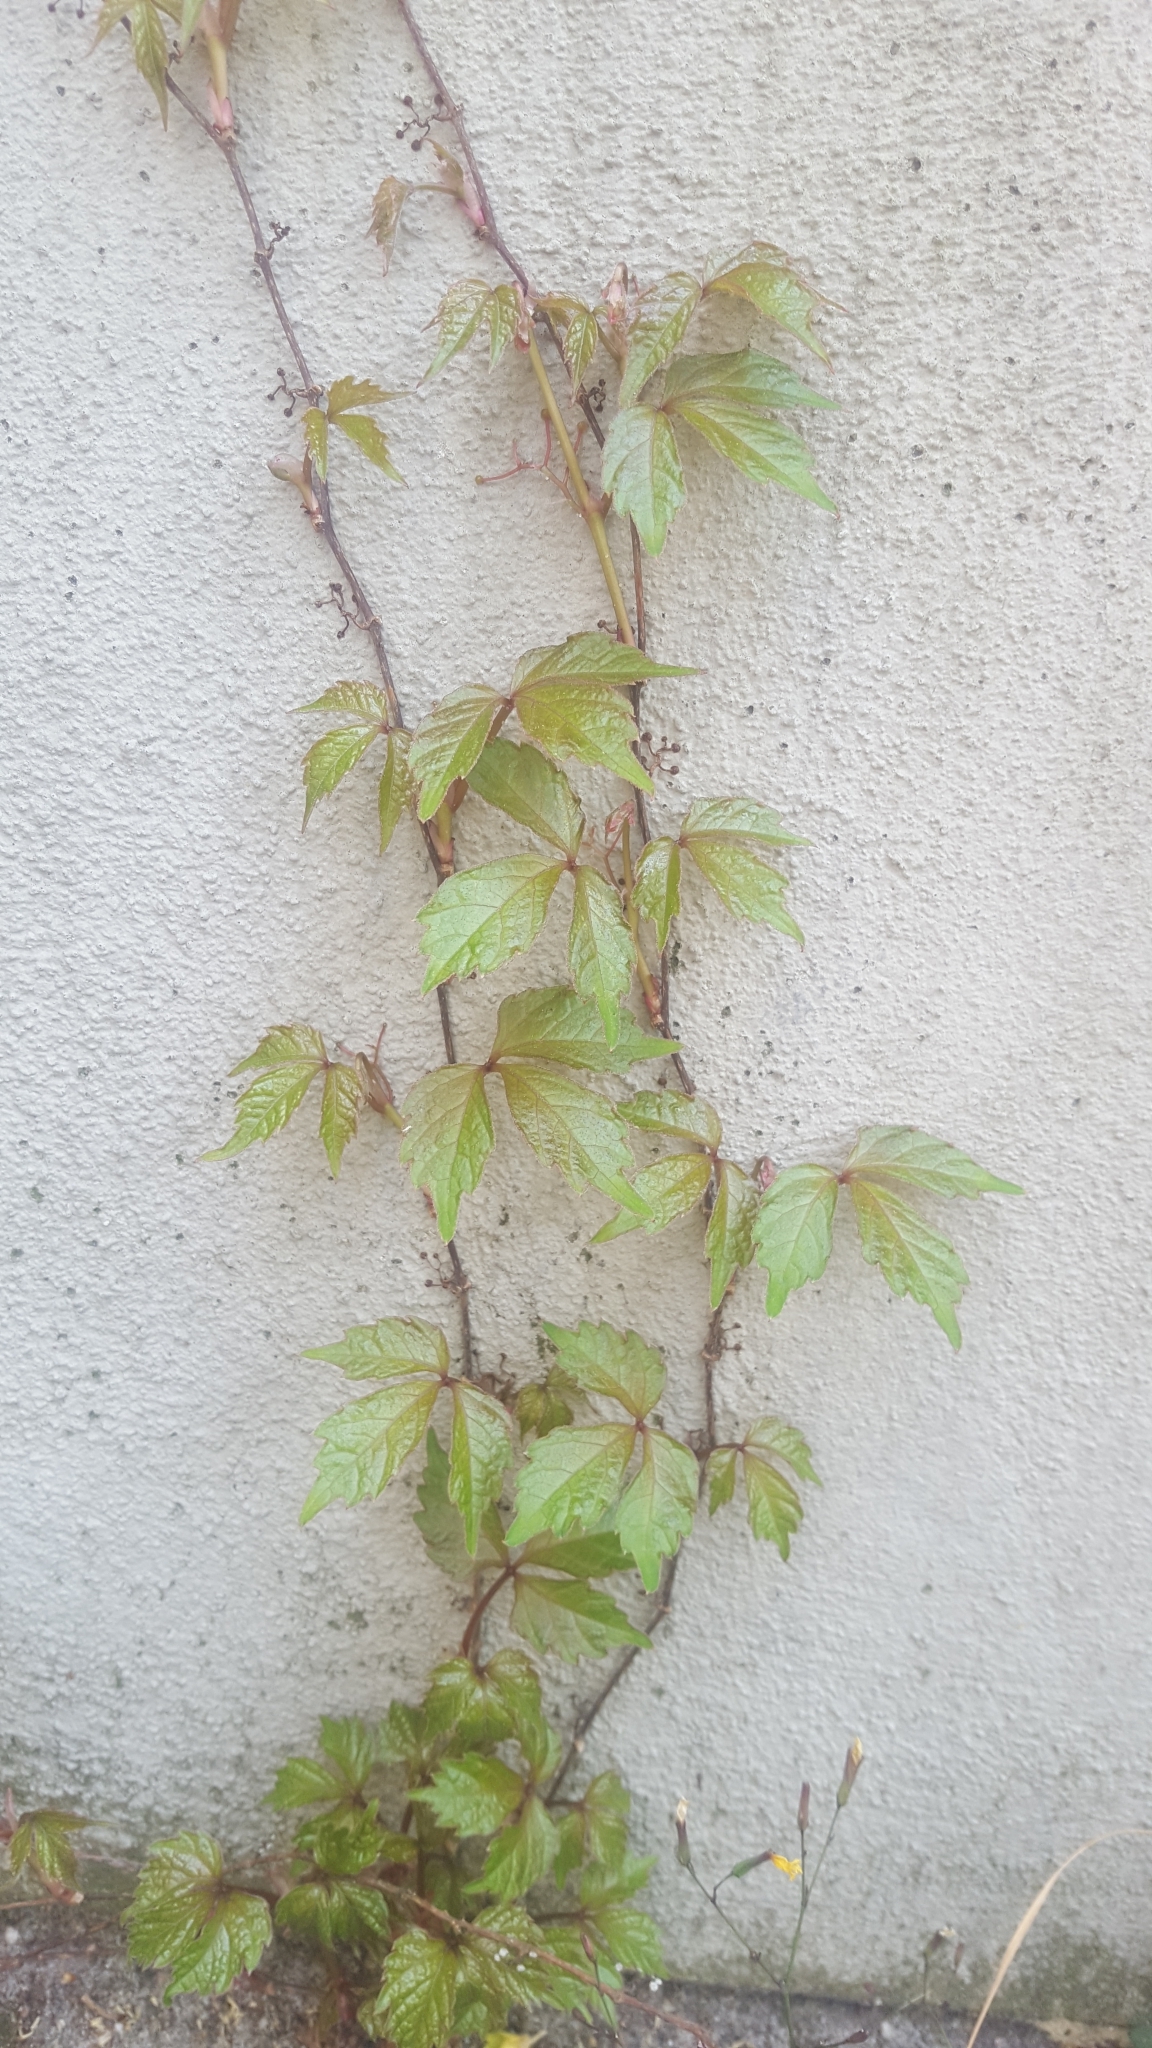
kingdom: Plantae
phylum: Tracheophyta
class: Magnoliopsida
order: Vitales
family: Vitaceae
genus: Parthenocissus
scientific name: Parthenocissus quinquefolia
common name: Virginia-creeper
